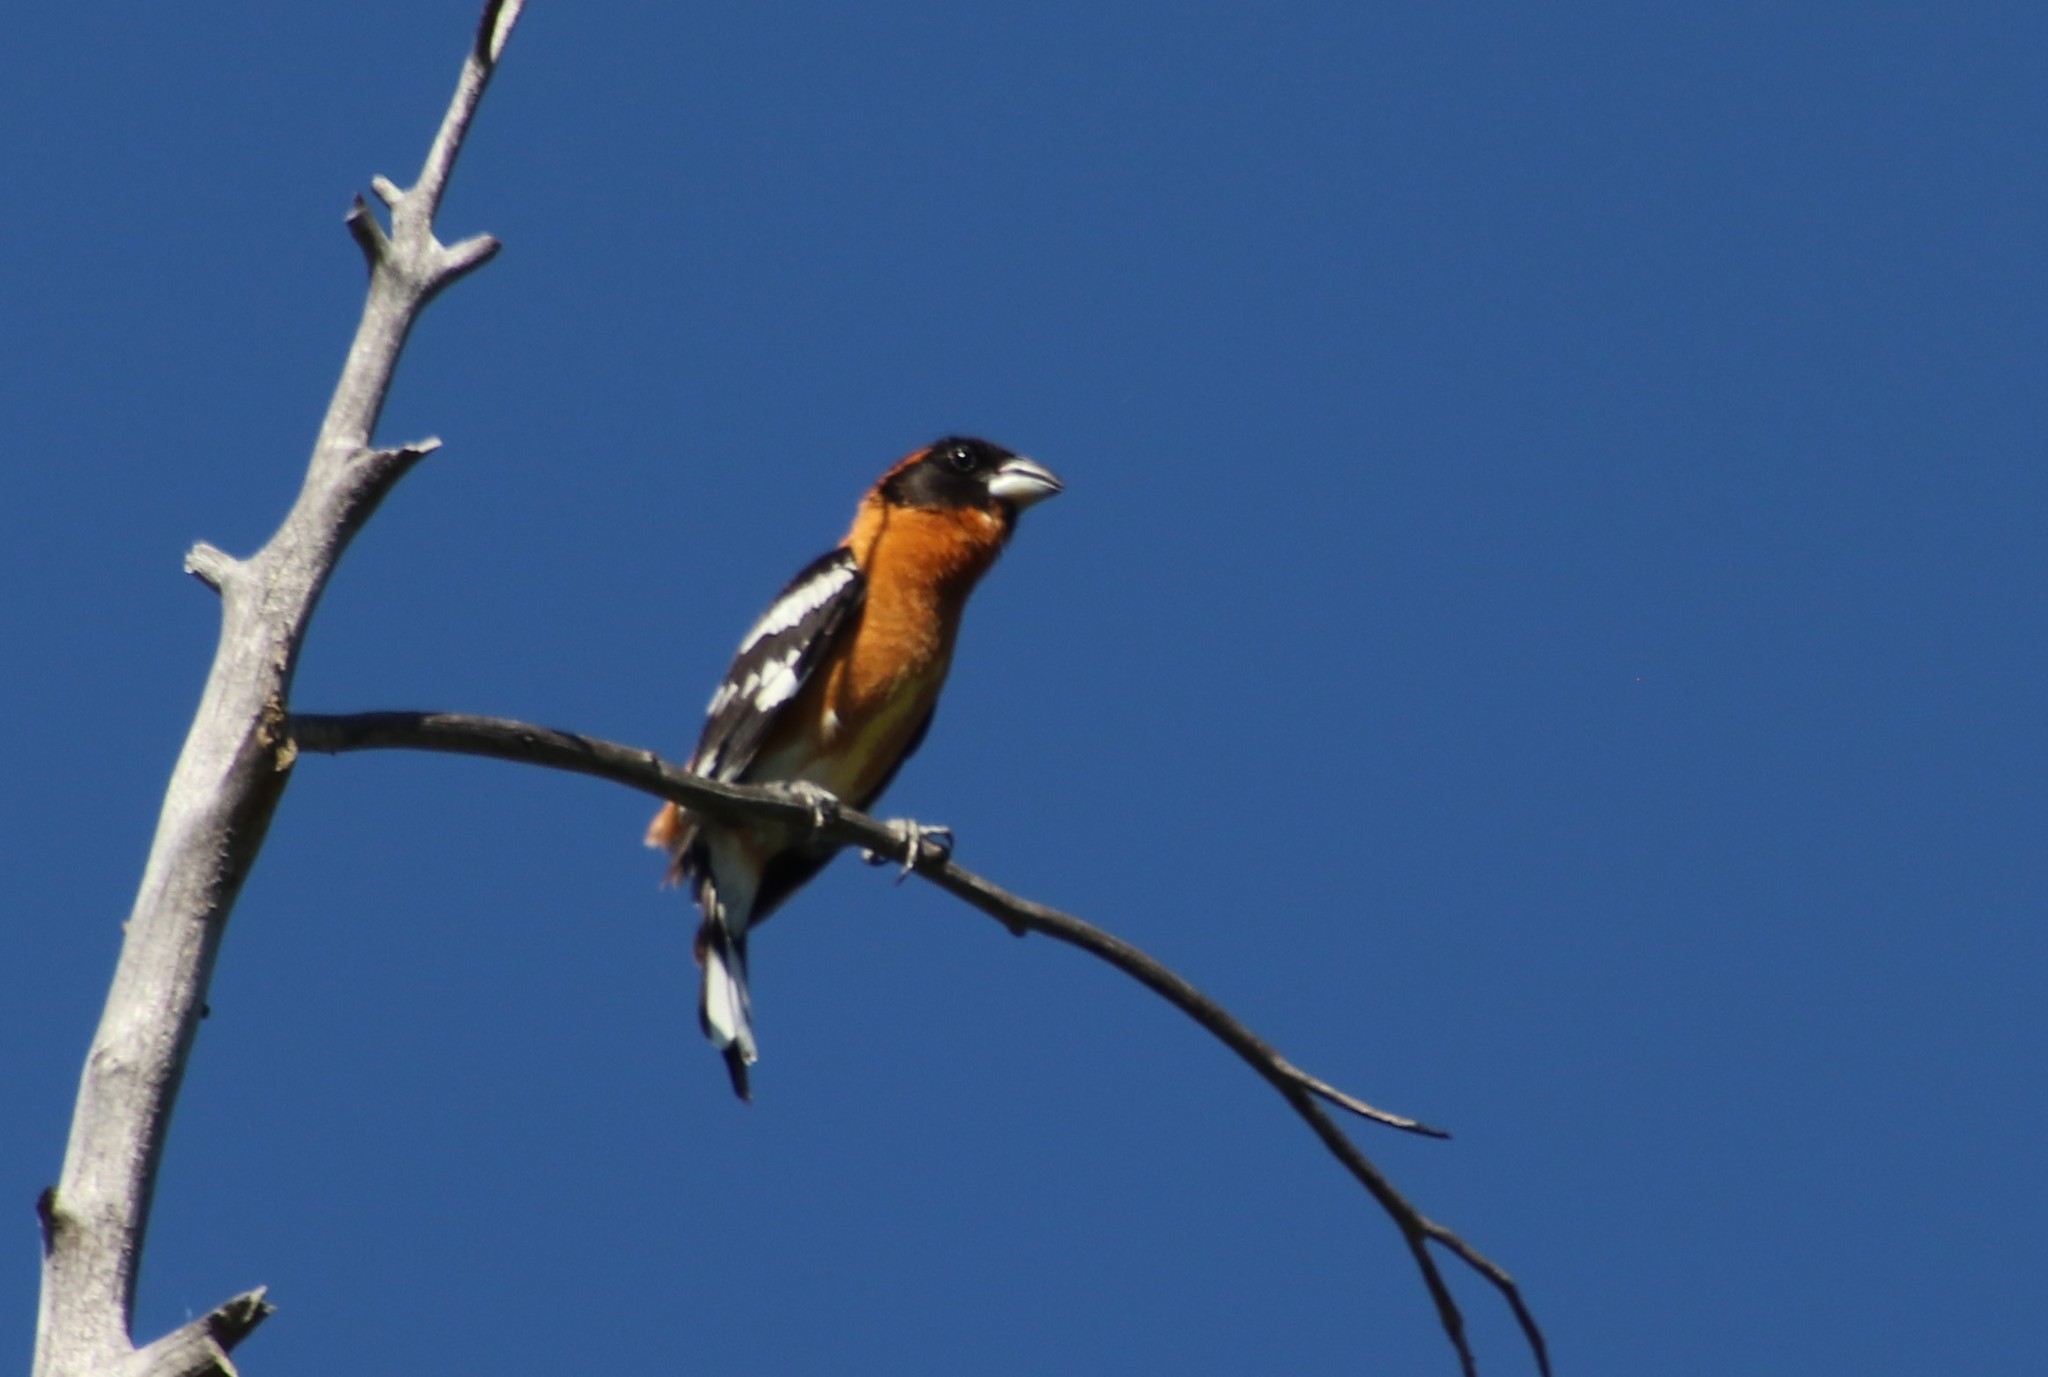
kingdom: Animalia
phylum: Chordata
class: Aves
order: Passeriformes
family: Cardinalidae
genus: Pheucticus
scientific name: Pheucticus melanocephalus
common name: Black-headed grosbeak
